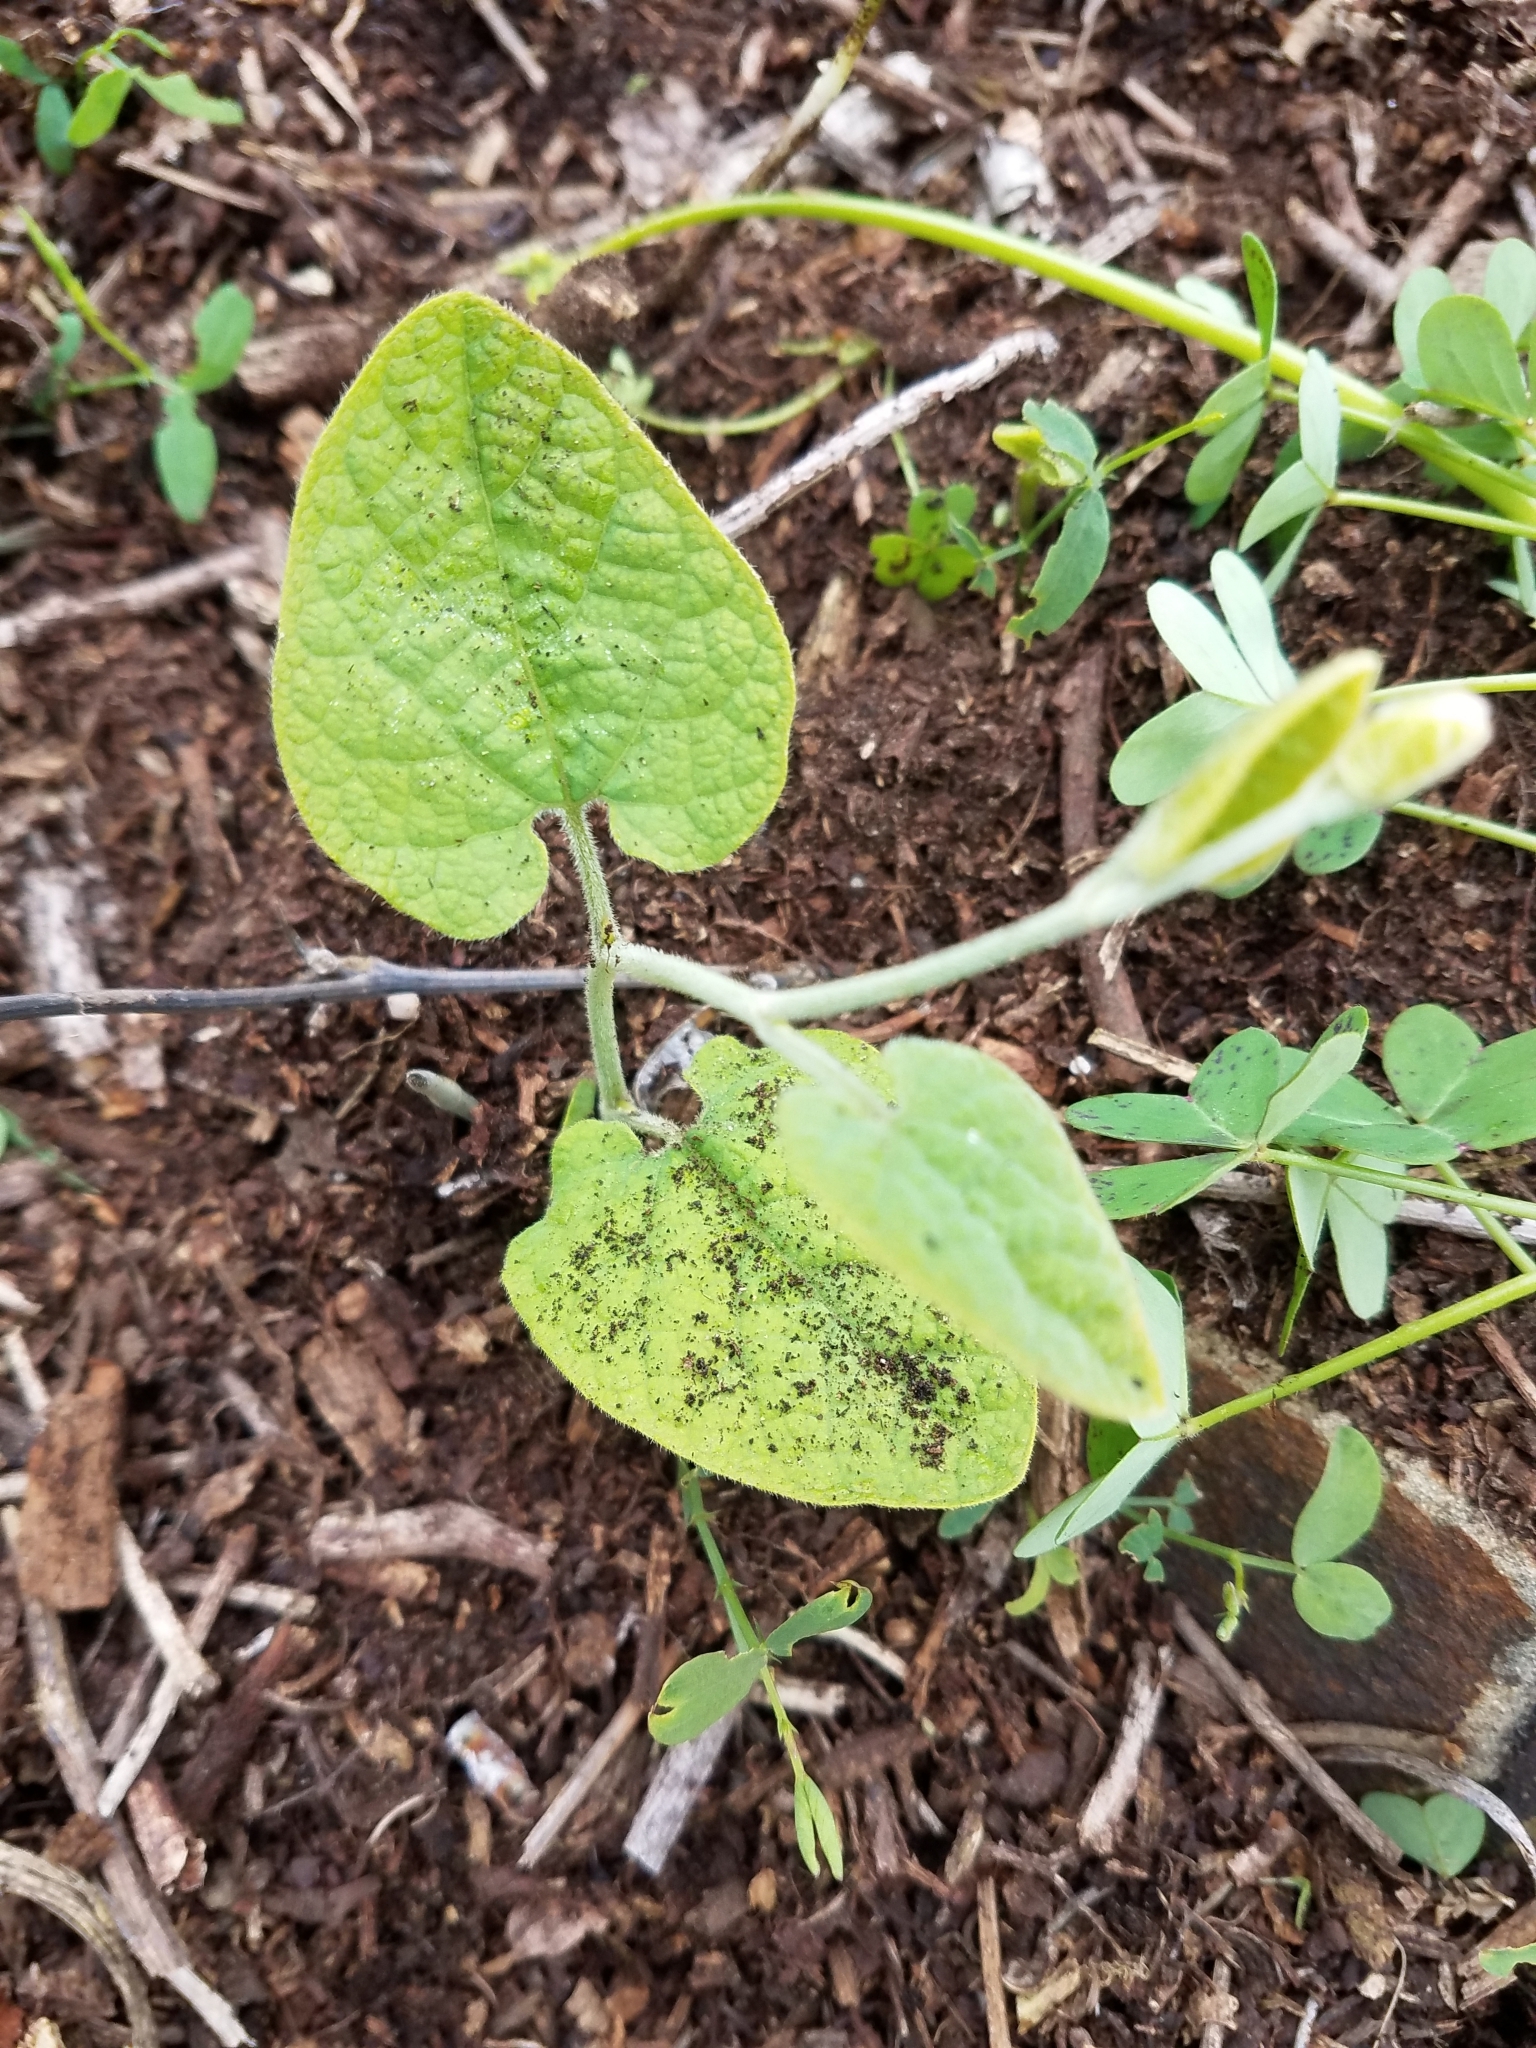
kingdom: Plantae
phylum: Tracheophyta
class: Magnoliopsida
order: Piperales
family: Aristolochiaceae
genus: Isotrema
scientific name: Isotrema californicum
